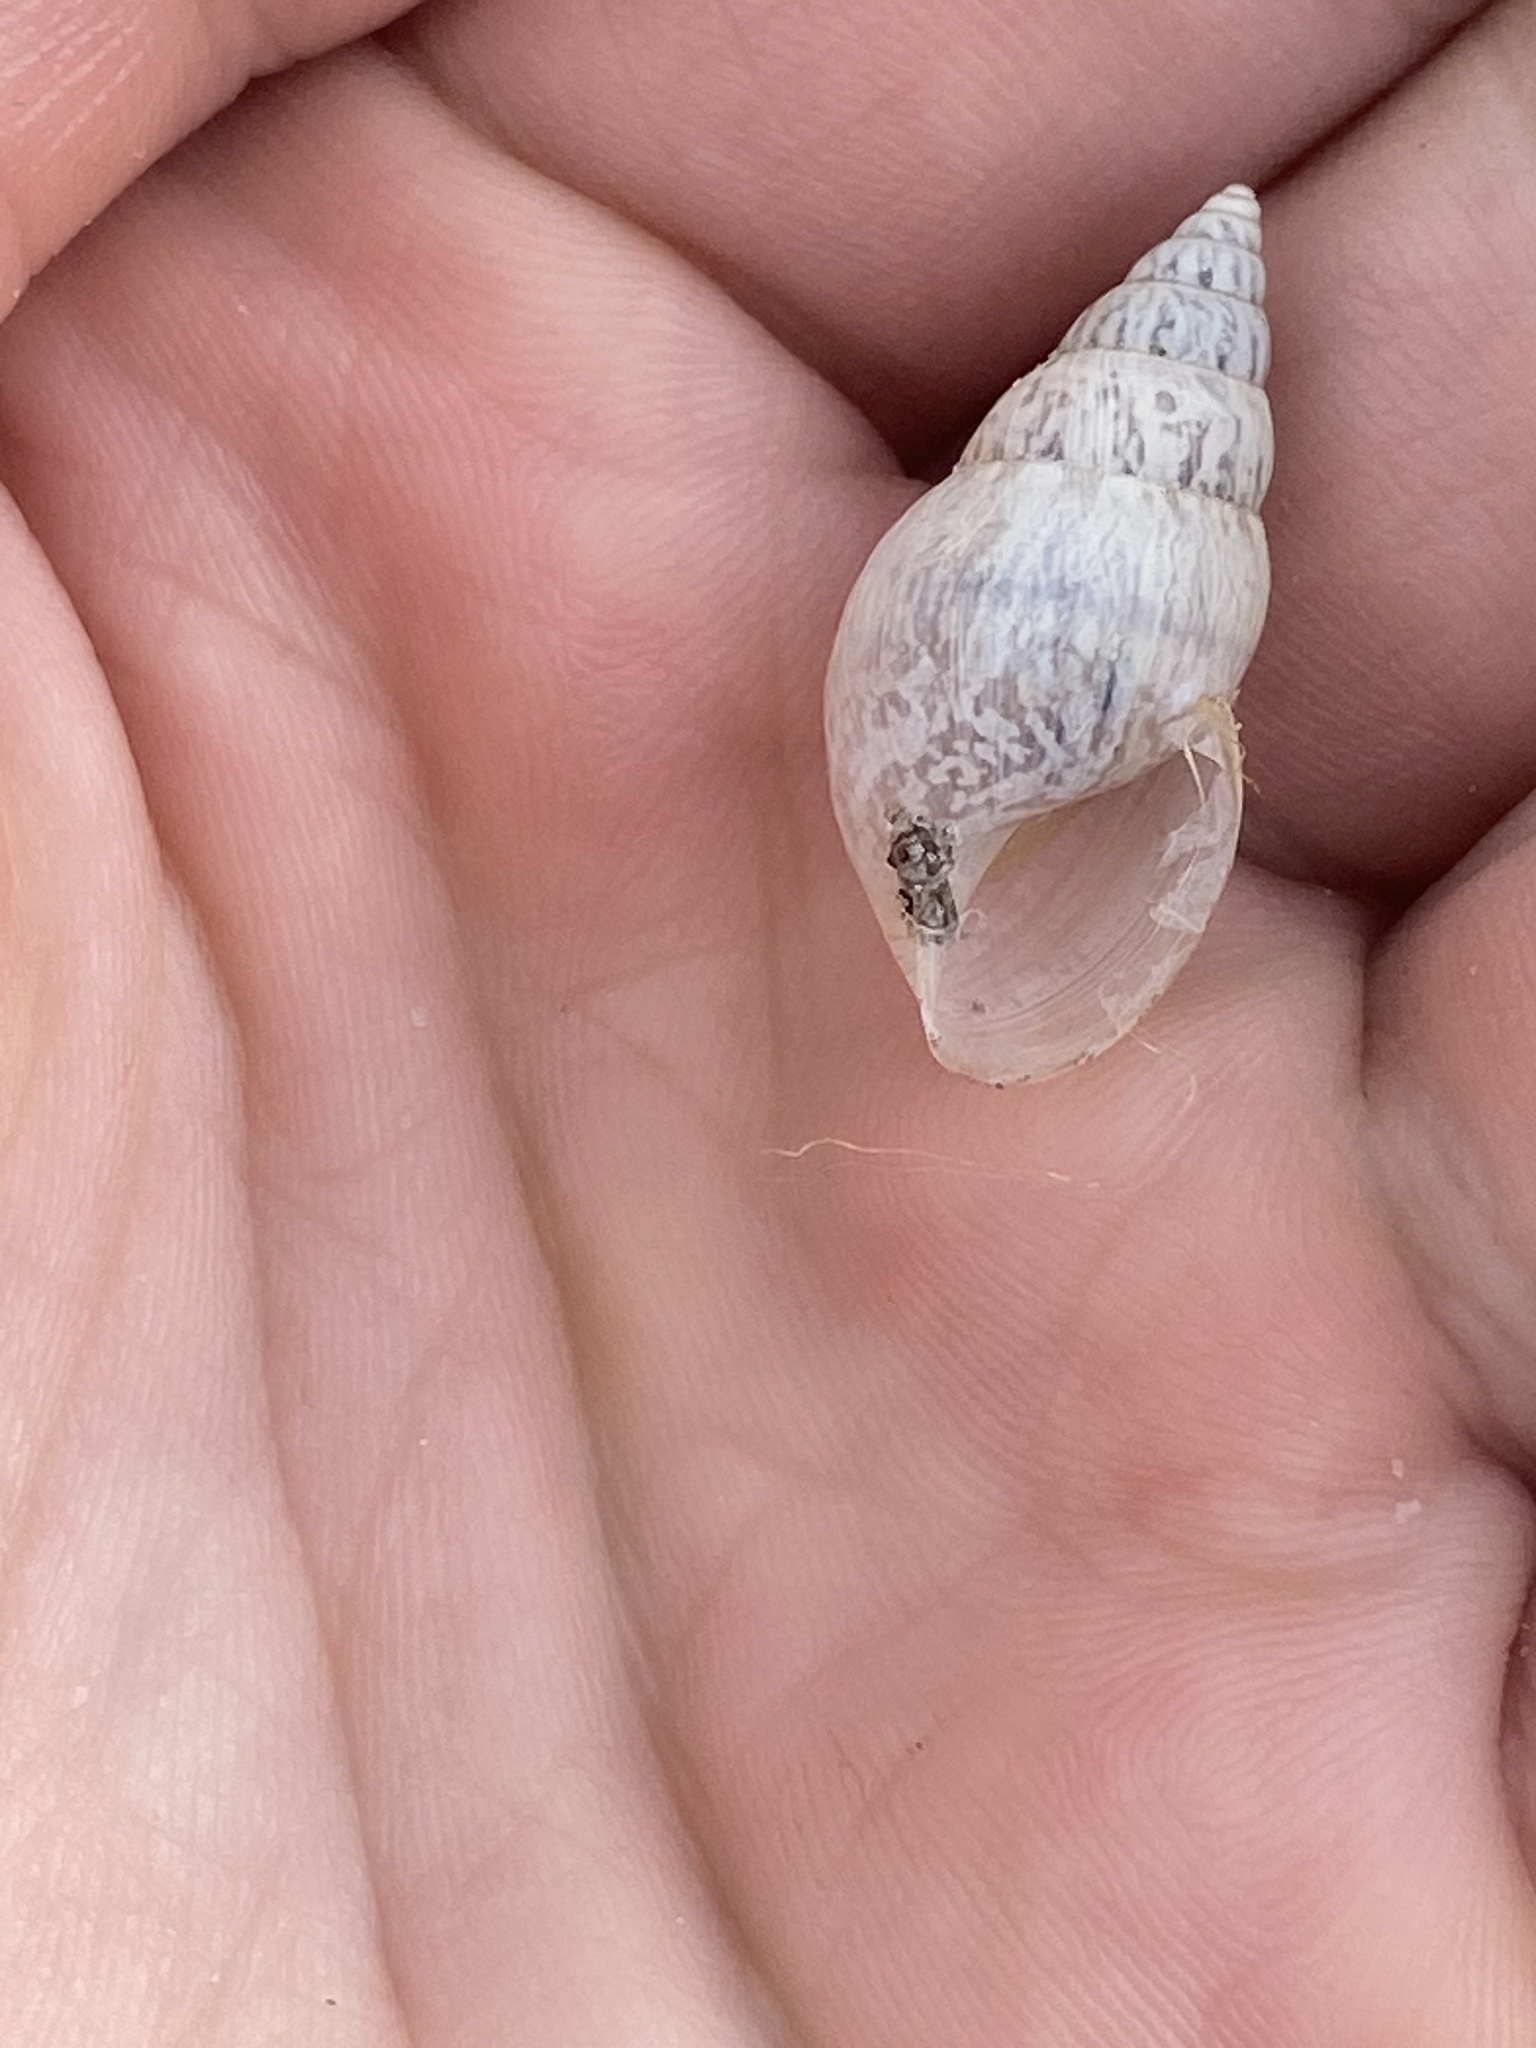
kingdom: Animalia
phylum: Mollusca
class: Gastropoda
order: Stylommatophora
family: Bulimulidae
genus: Bulimulus
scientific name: Bulimulus bonariensis
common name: Snail
